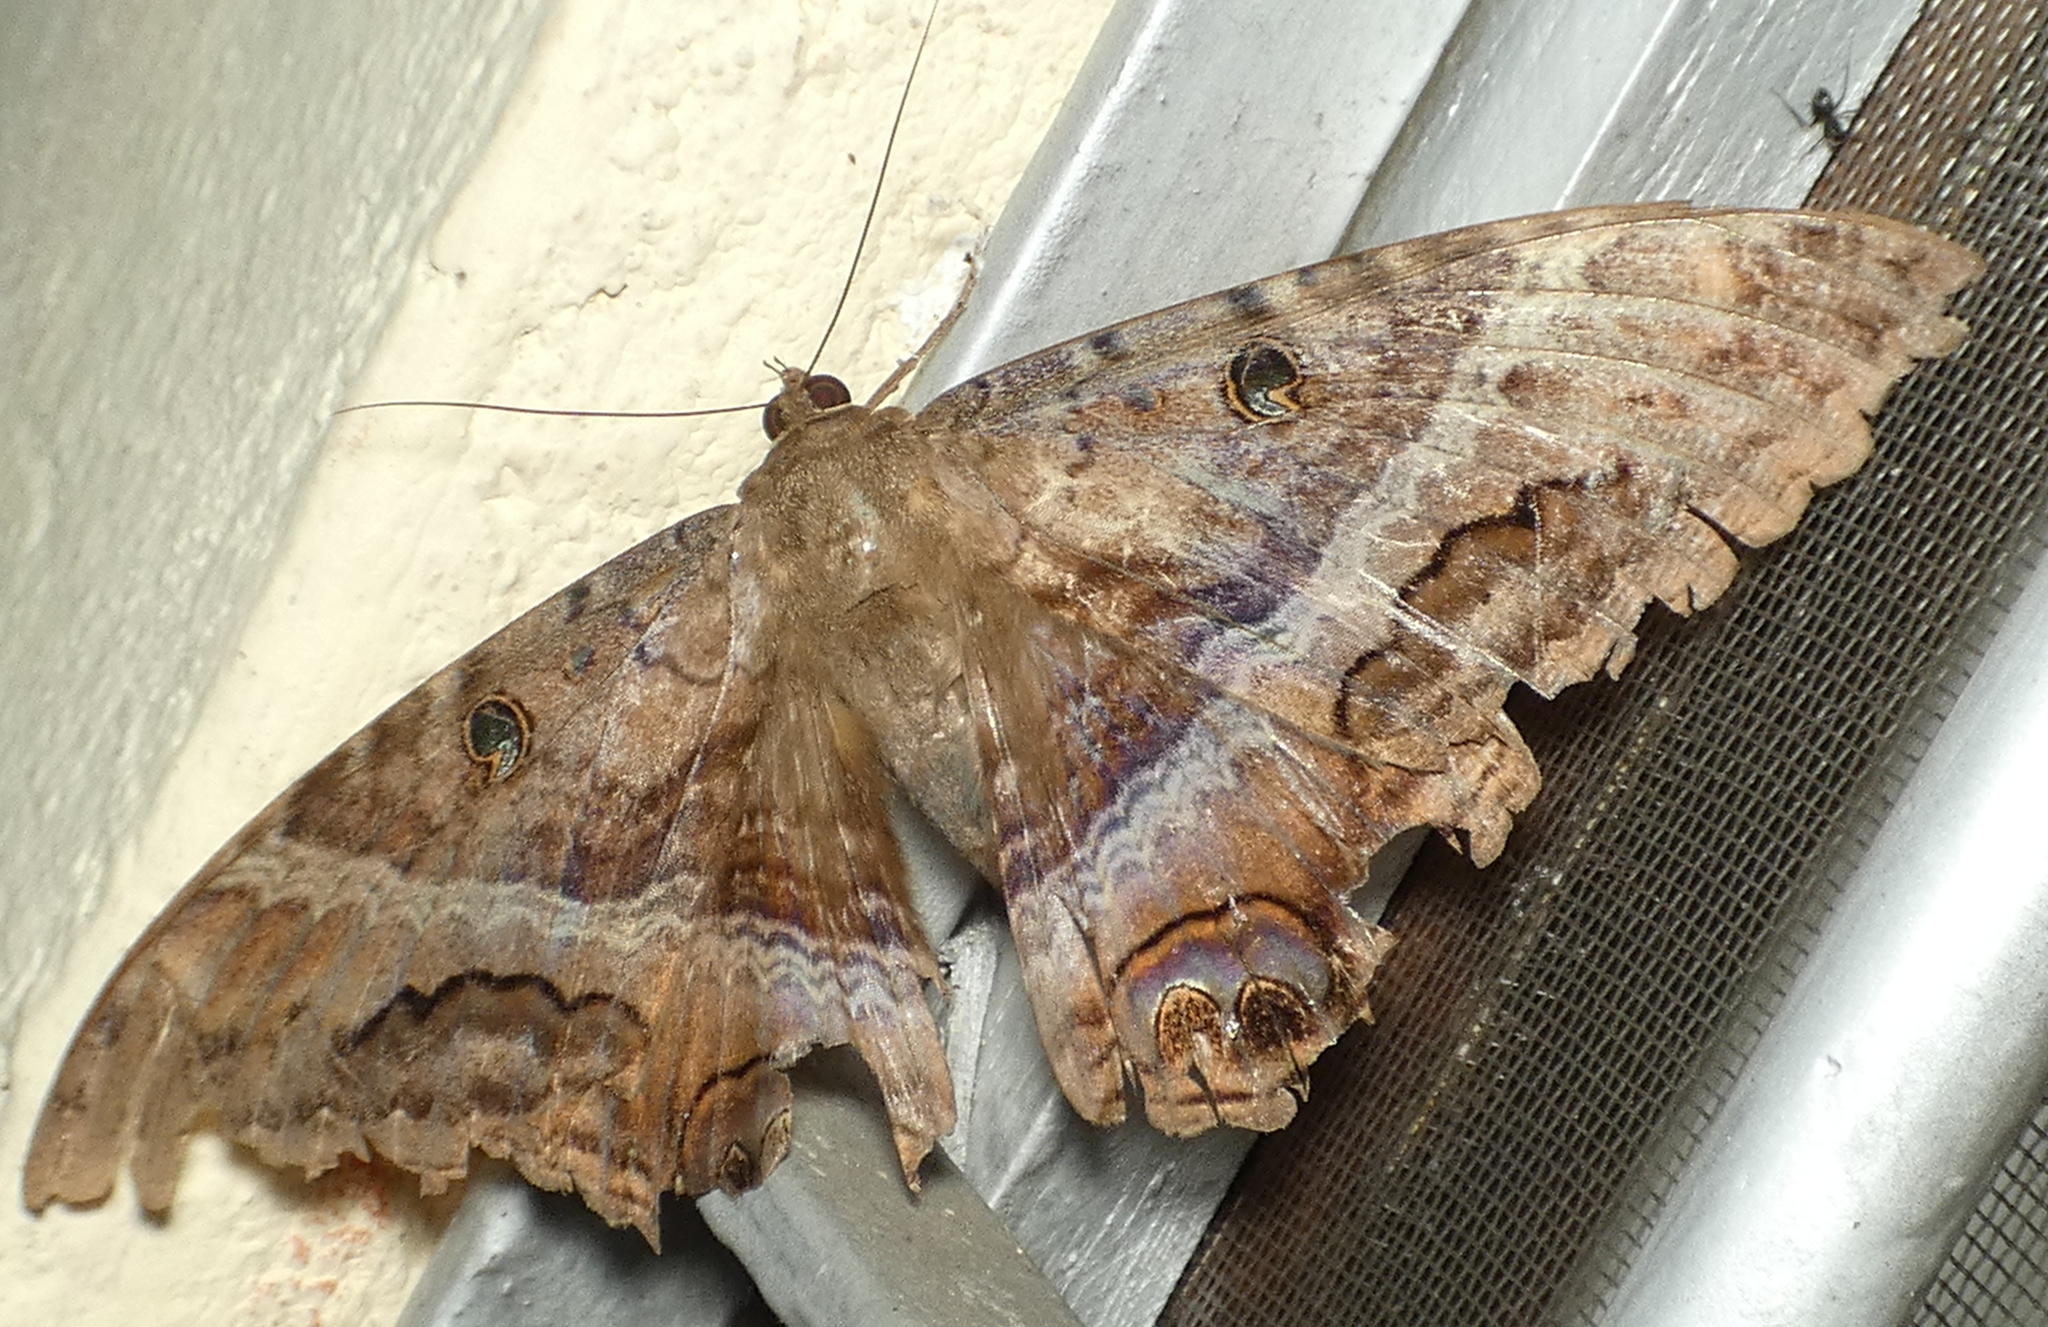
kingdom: Animalia
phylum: Arthropoda
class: Insecta
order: Lepidoptera
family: Erebidae
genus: Ascalapha
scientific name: Ascalapha odorata
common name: Black witch
